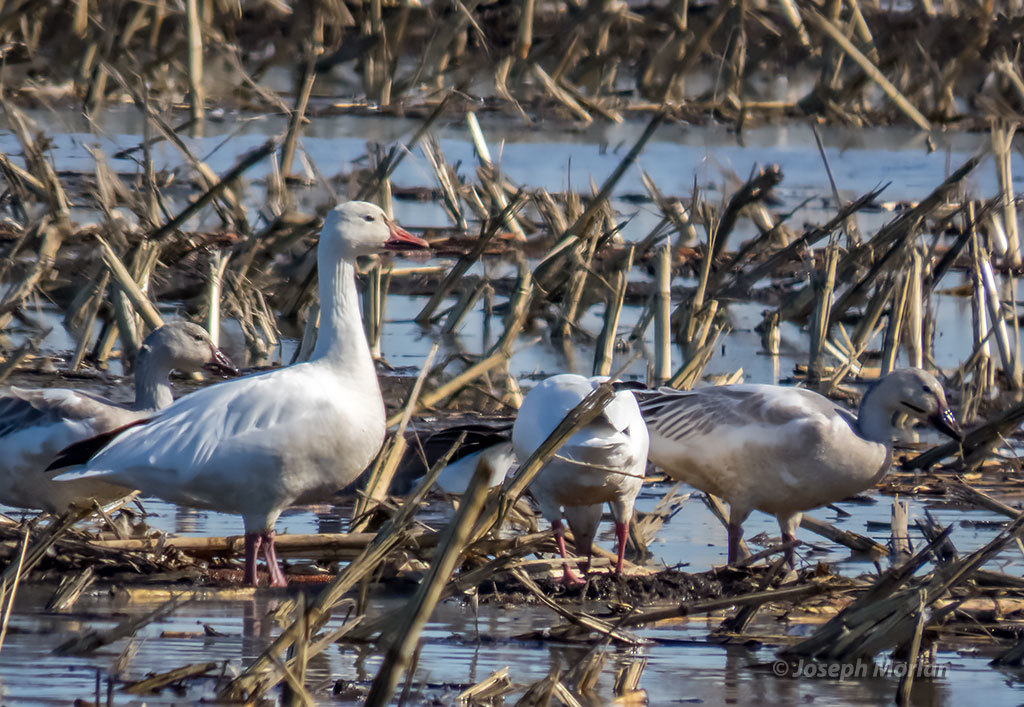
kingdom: Animalia
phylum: Chordata
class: Aves
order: Anseriformes
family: Anatidae
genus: Anser
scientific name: Anser caerulescens
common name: Snow goose
